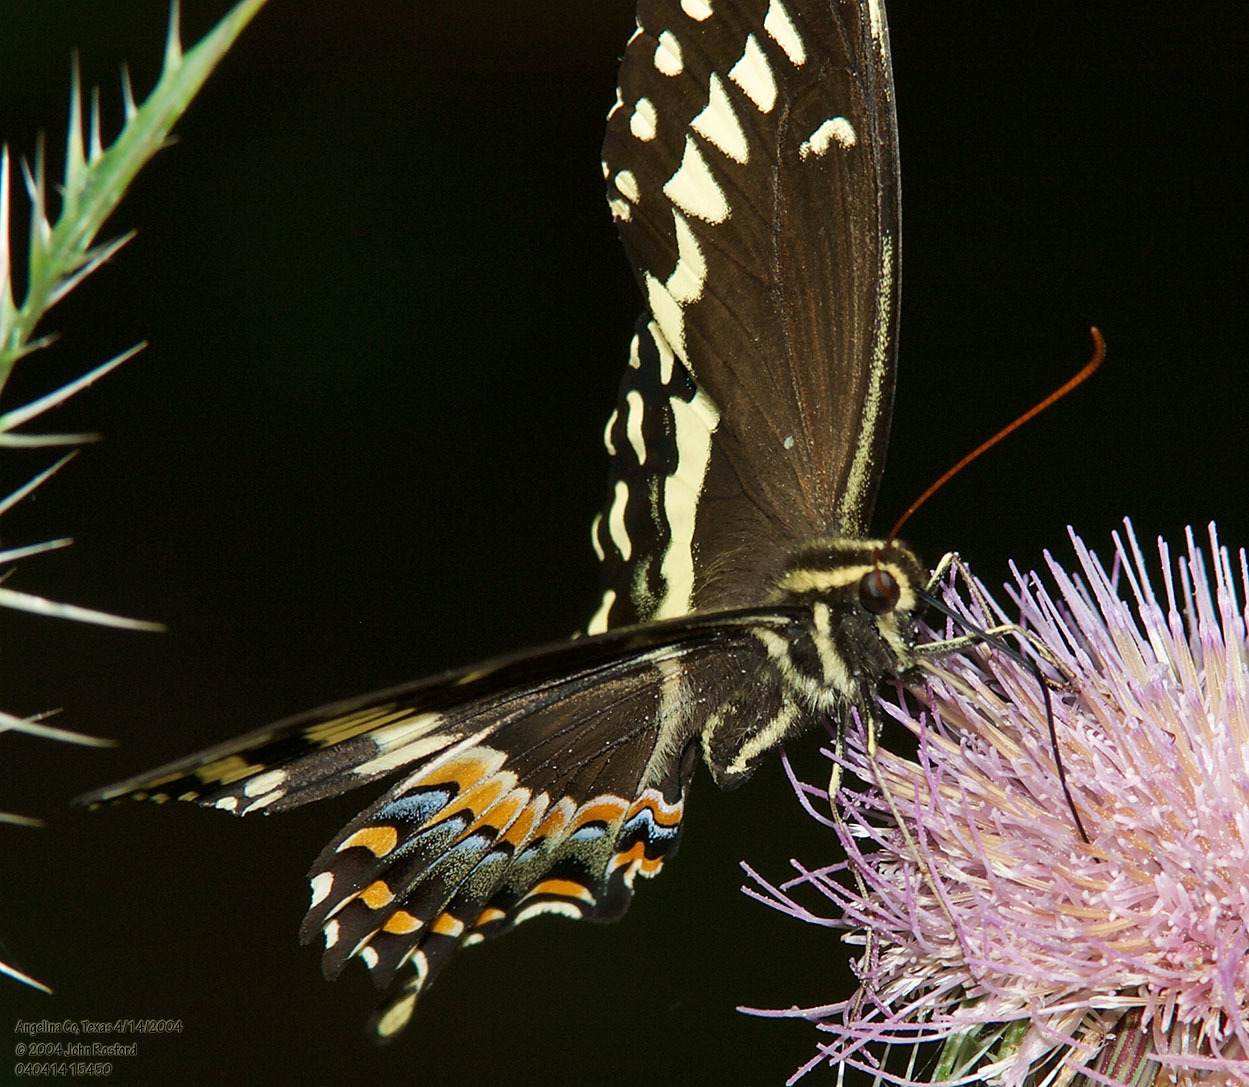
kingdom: Animalia
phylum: Arthropoda
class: Insecta
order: Lepidoptera
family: Papilionidae
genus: Papilio
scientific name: Papilio palamedes
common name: Palamedes swallowtail
